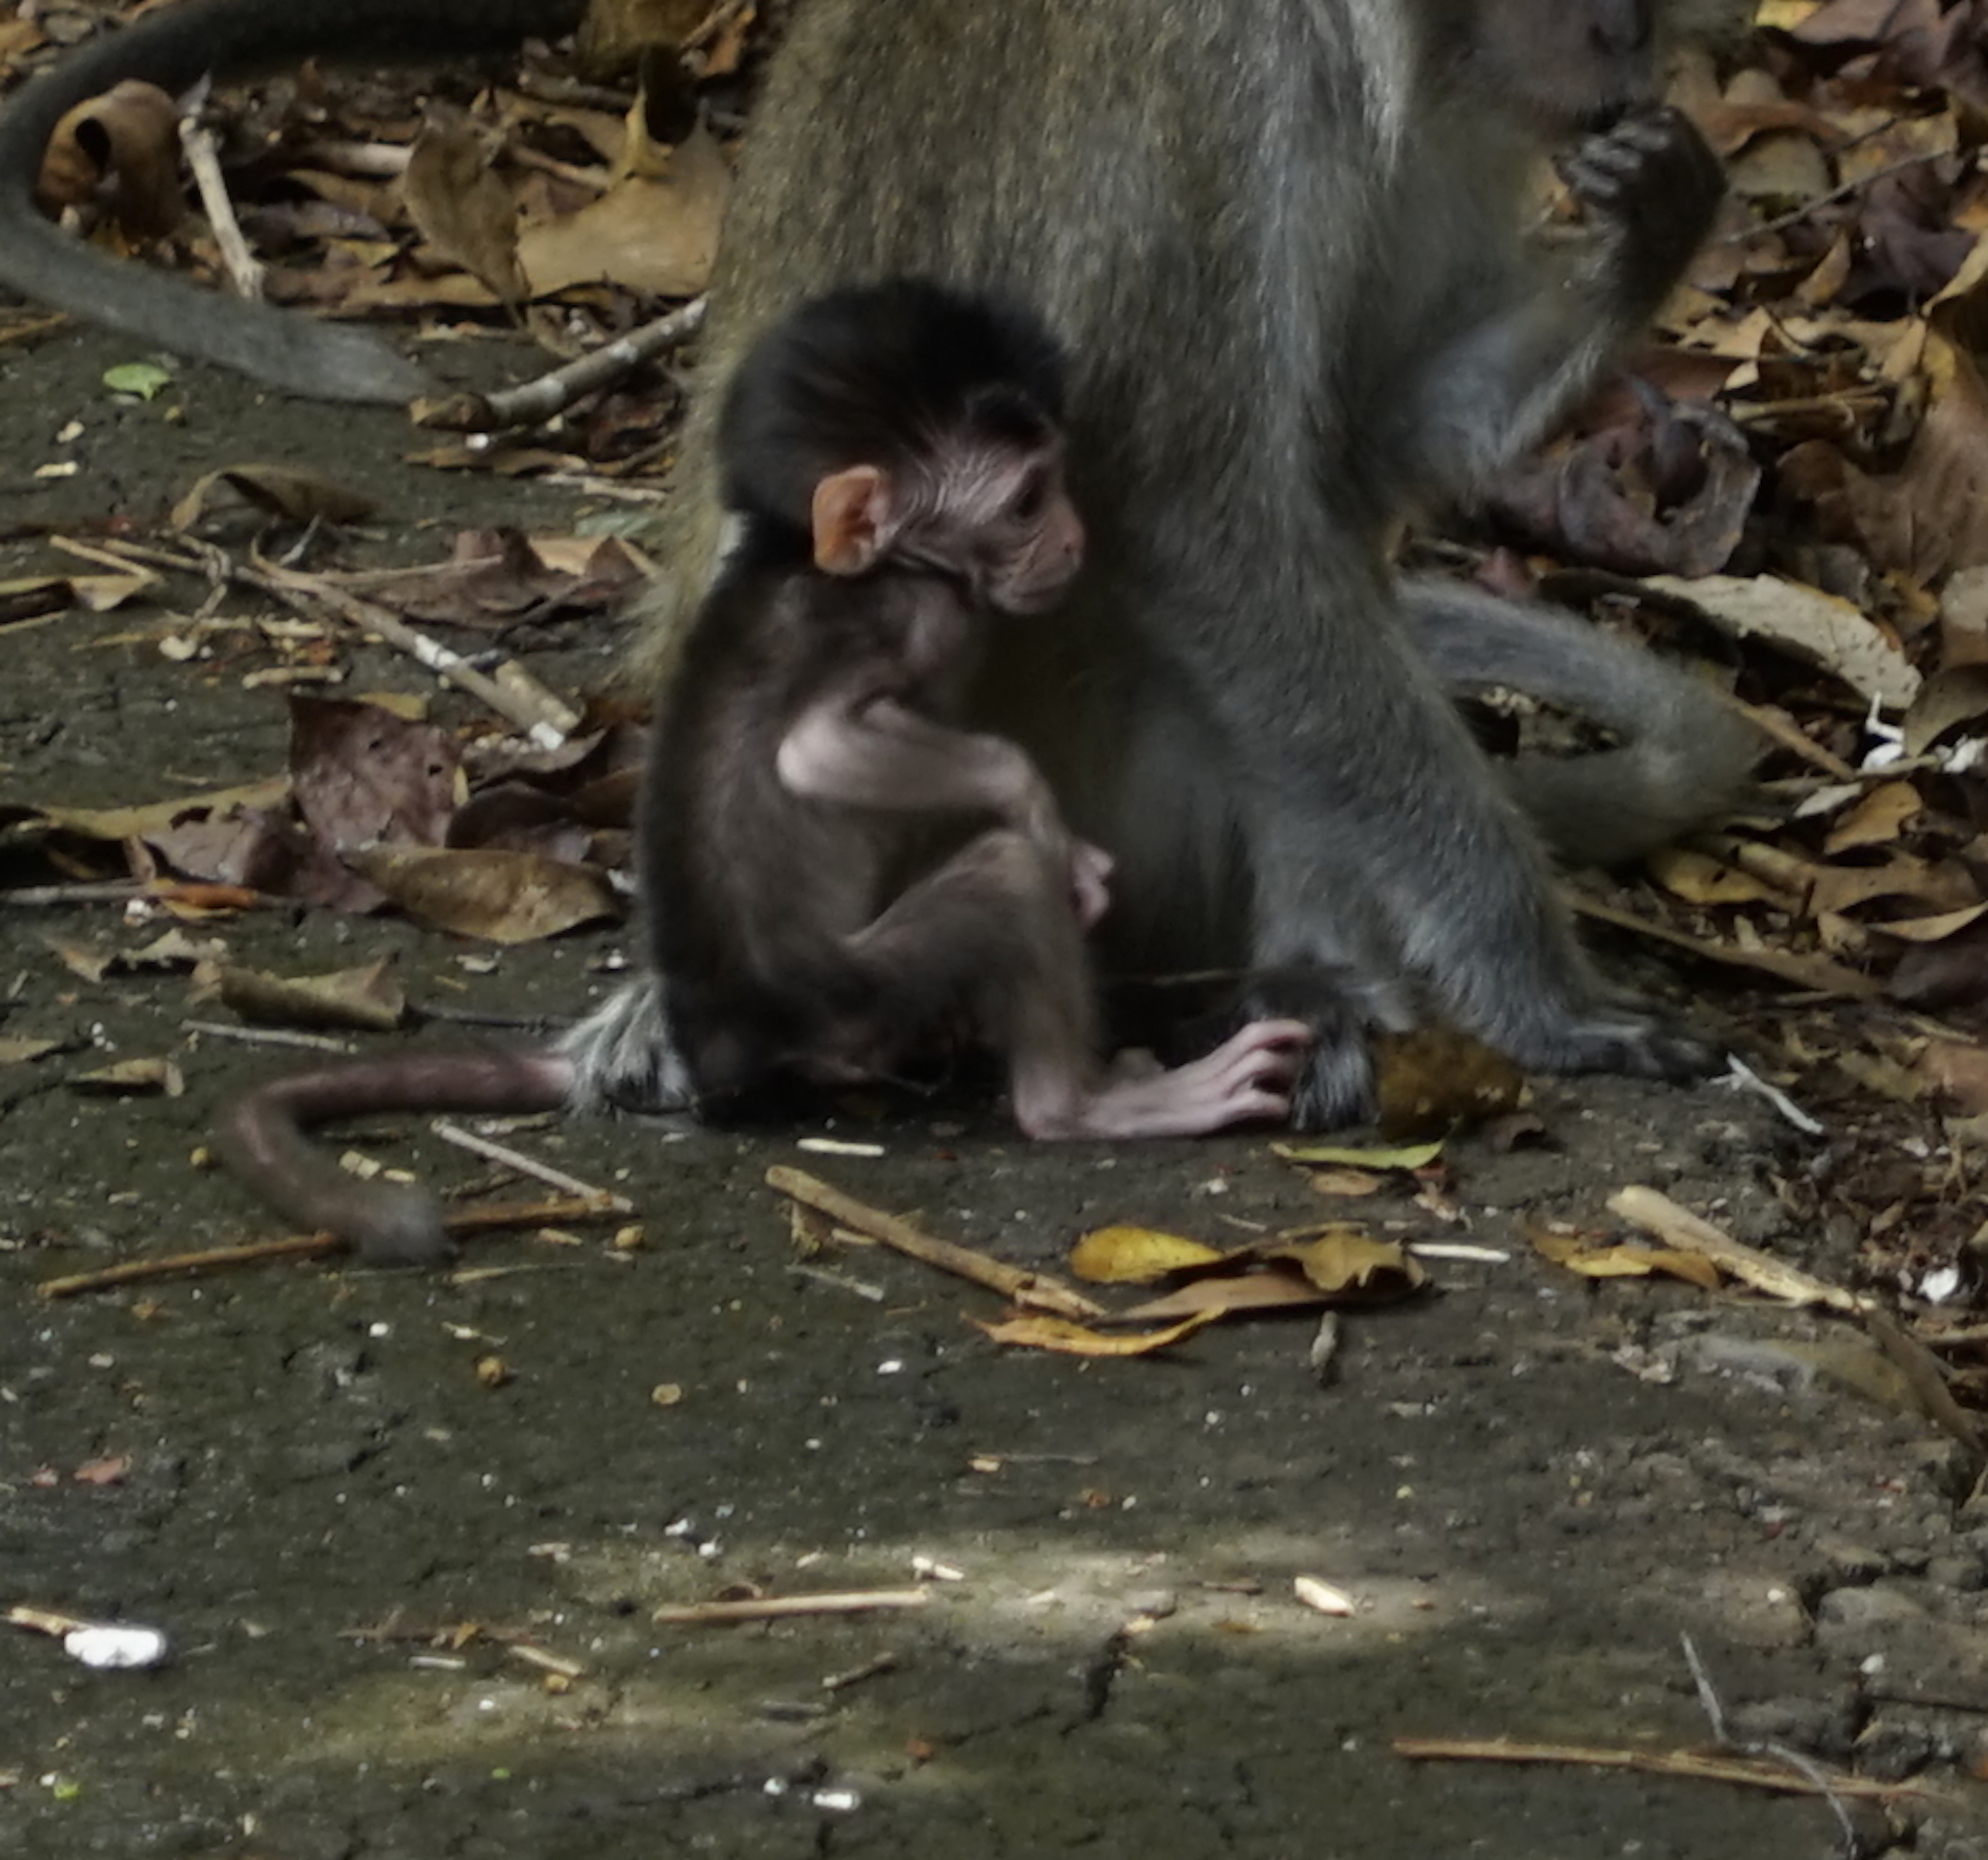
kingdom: Animalia
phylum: Chordata
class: Mammalia
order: Primates
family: Cercopithecidae
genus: Macaca
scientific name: Macaca fascicularis
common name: Crab-eating macaque
